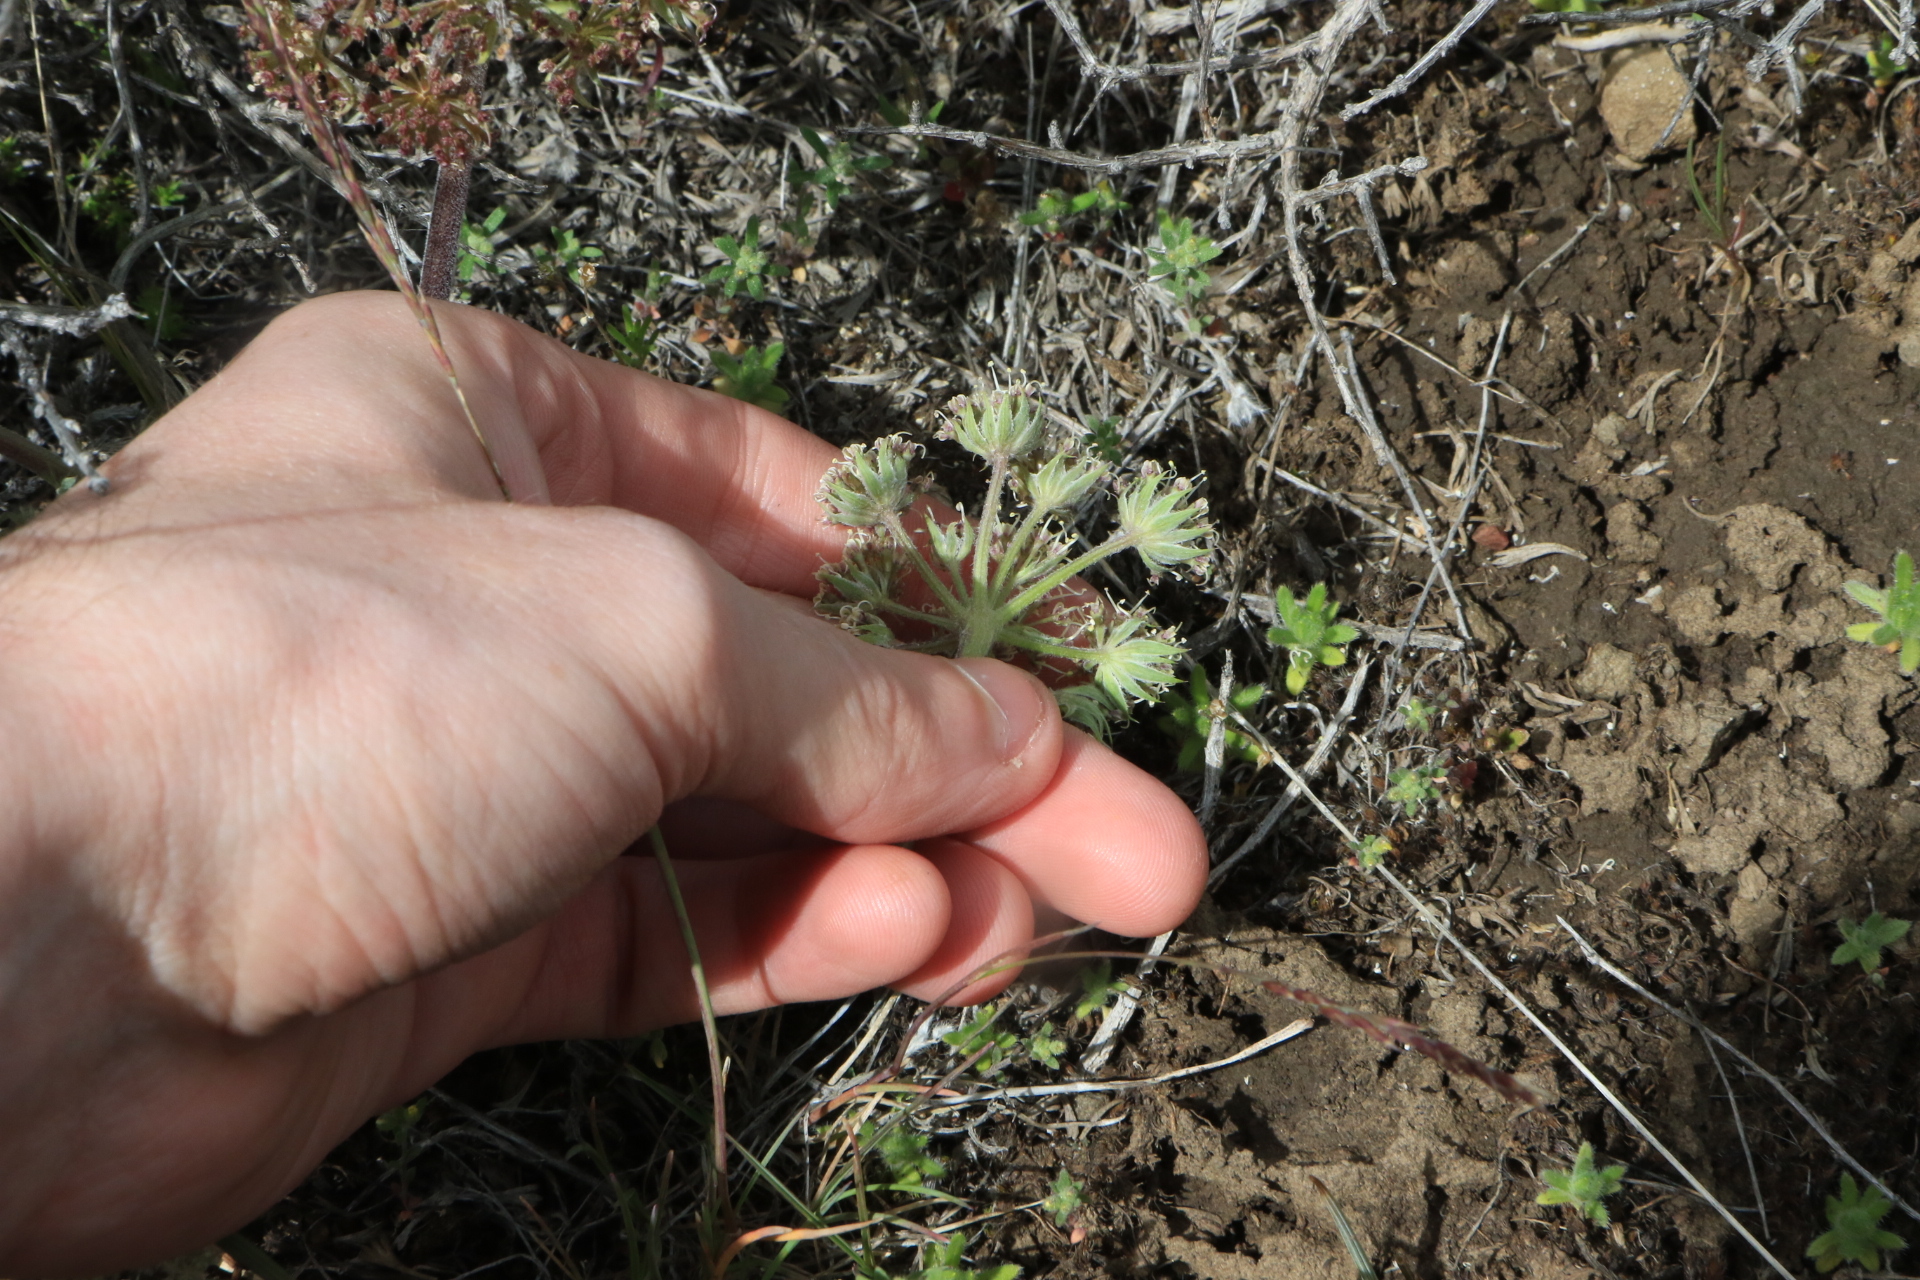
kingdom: Plantae
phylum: Tracheophyta
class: Magnoliopsida
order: Apiales
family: Apiaceae
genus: Lomatium
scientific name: Lomatium macrocarpum
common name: Big-seed biscuitroot
